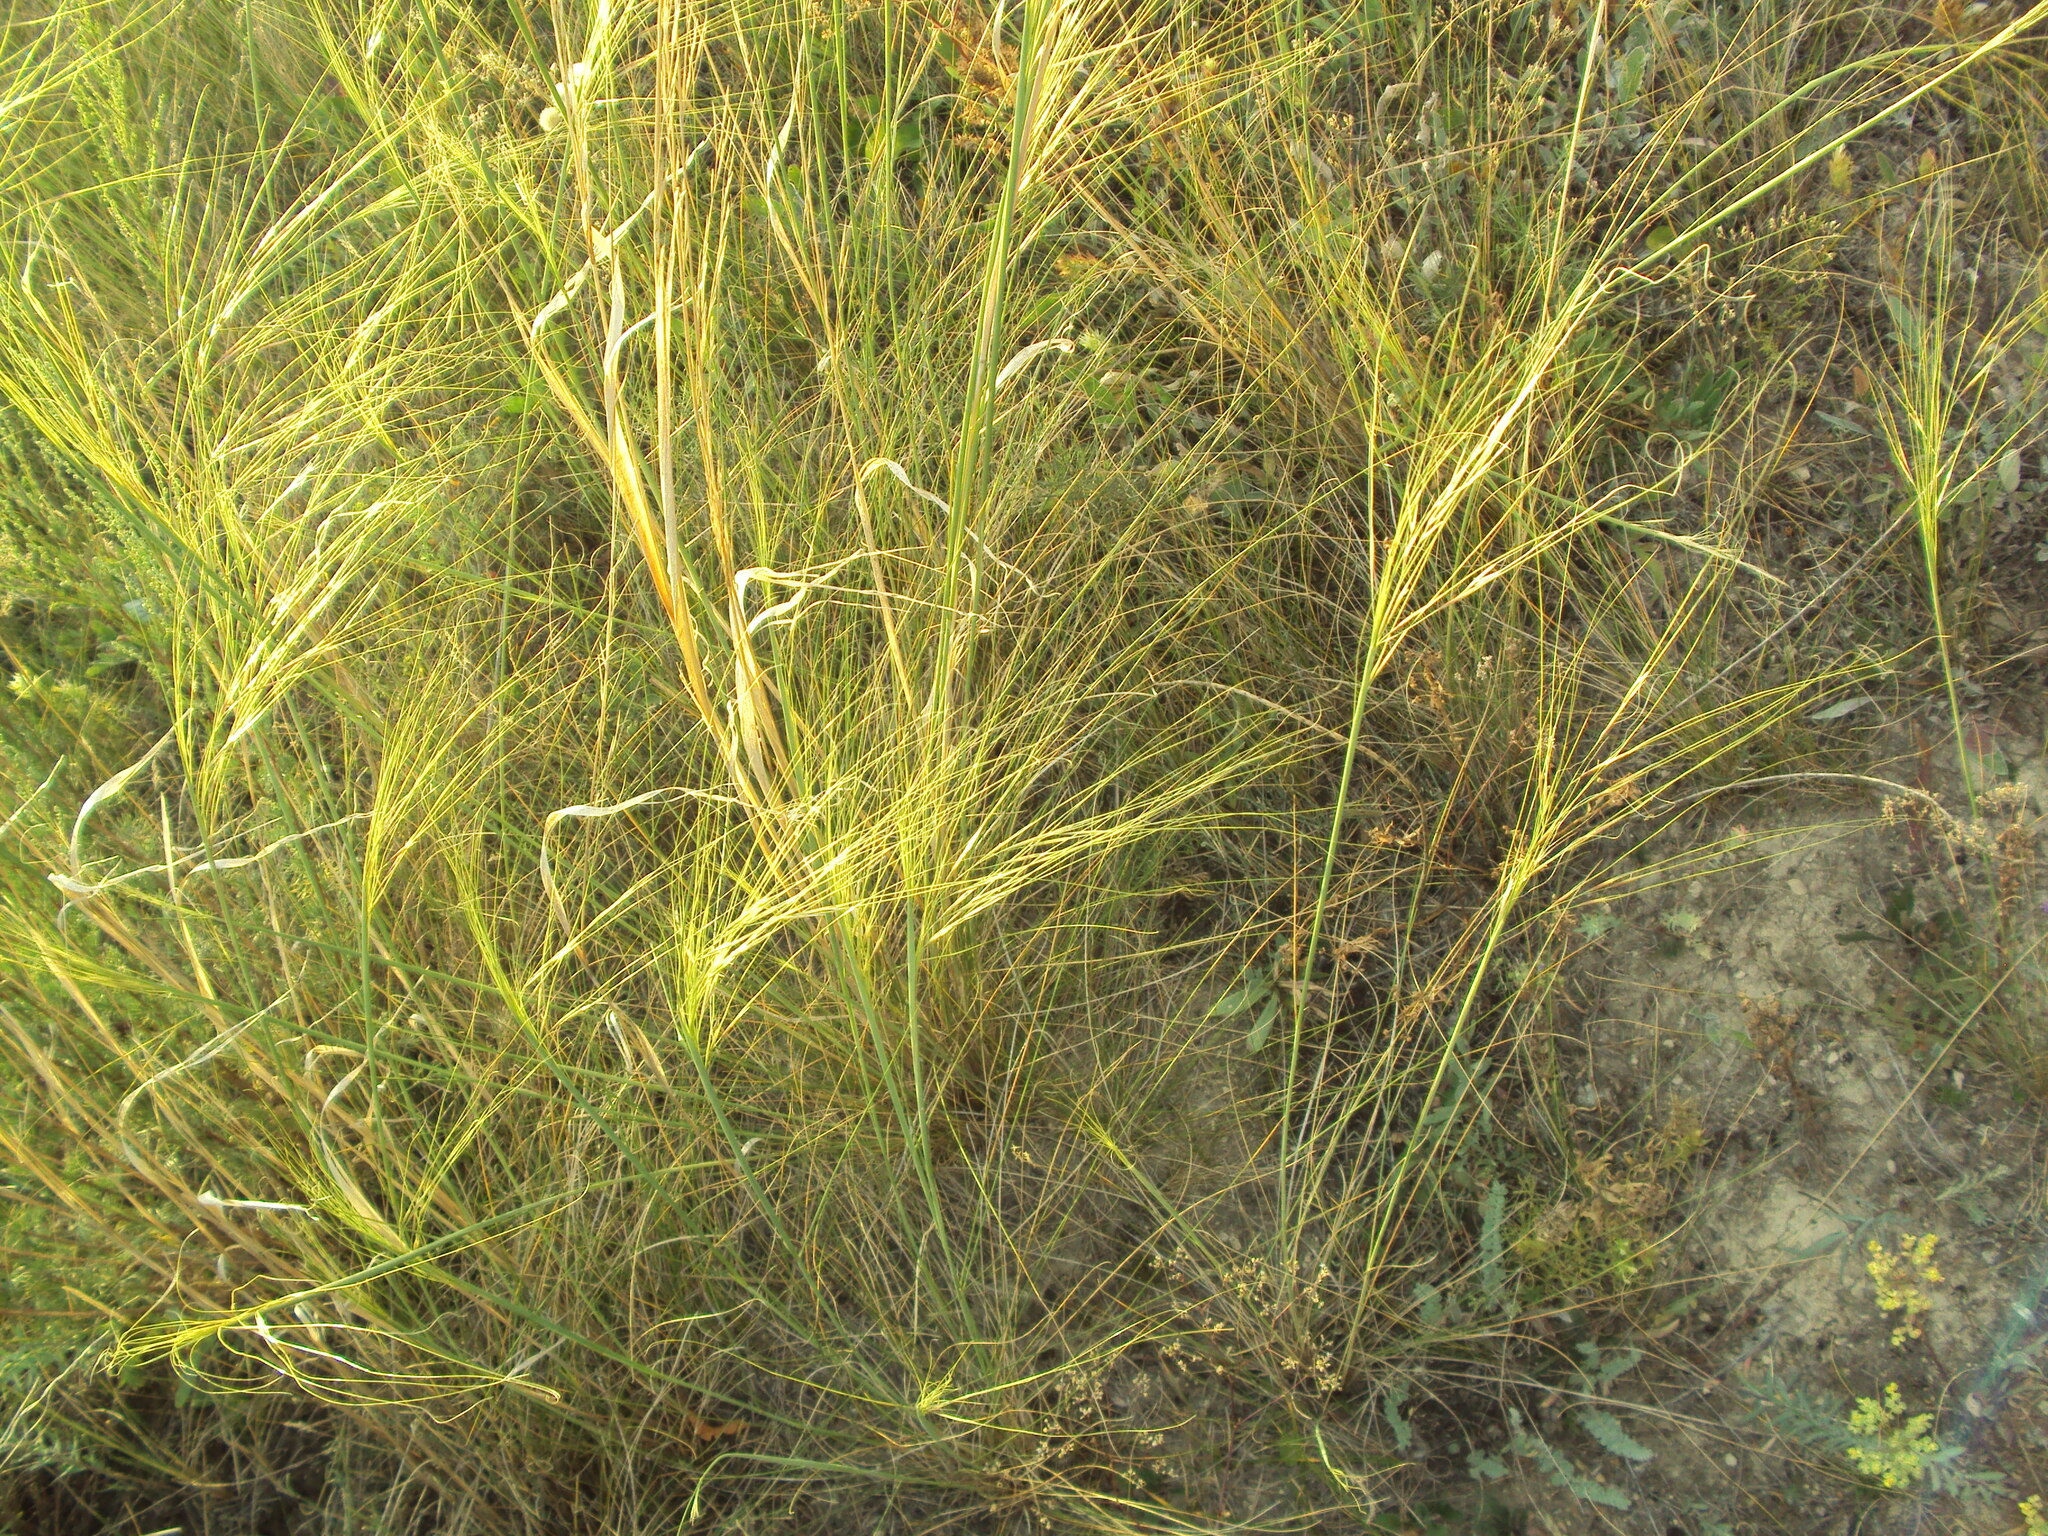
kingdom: Plantae
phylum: Tracheophyta
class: Liliopsida
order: Poales
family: Poaceae
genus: Stipa
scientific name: Stipa capillata
